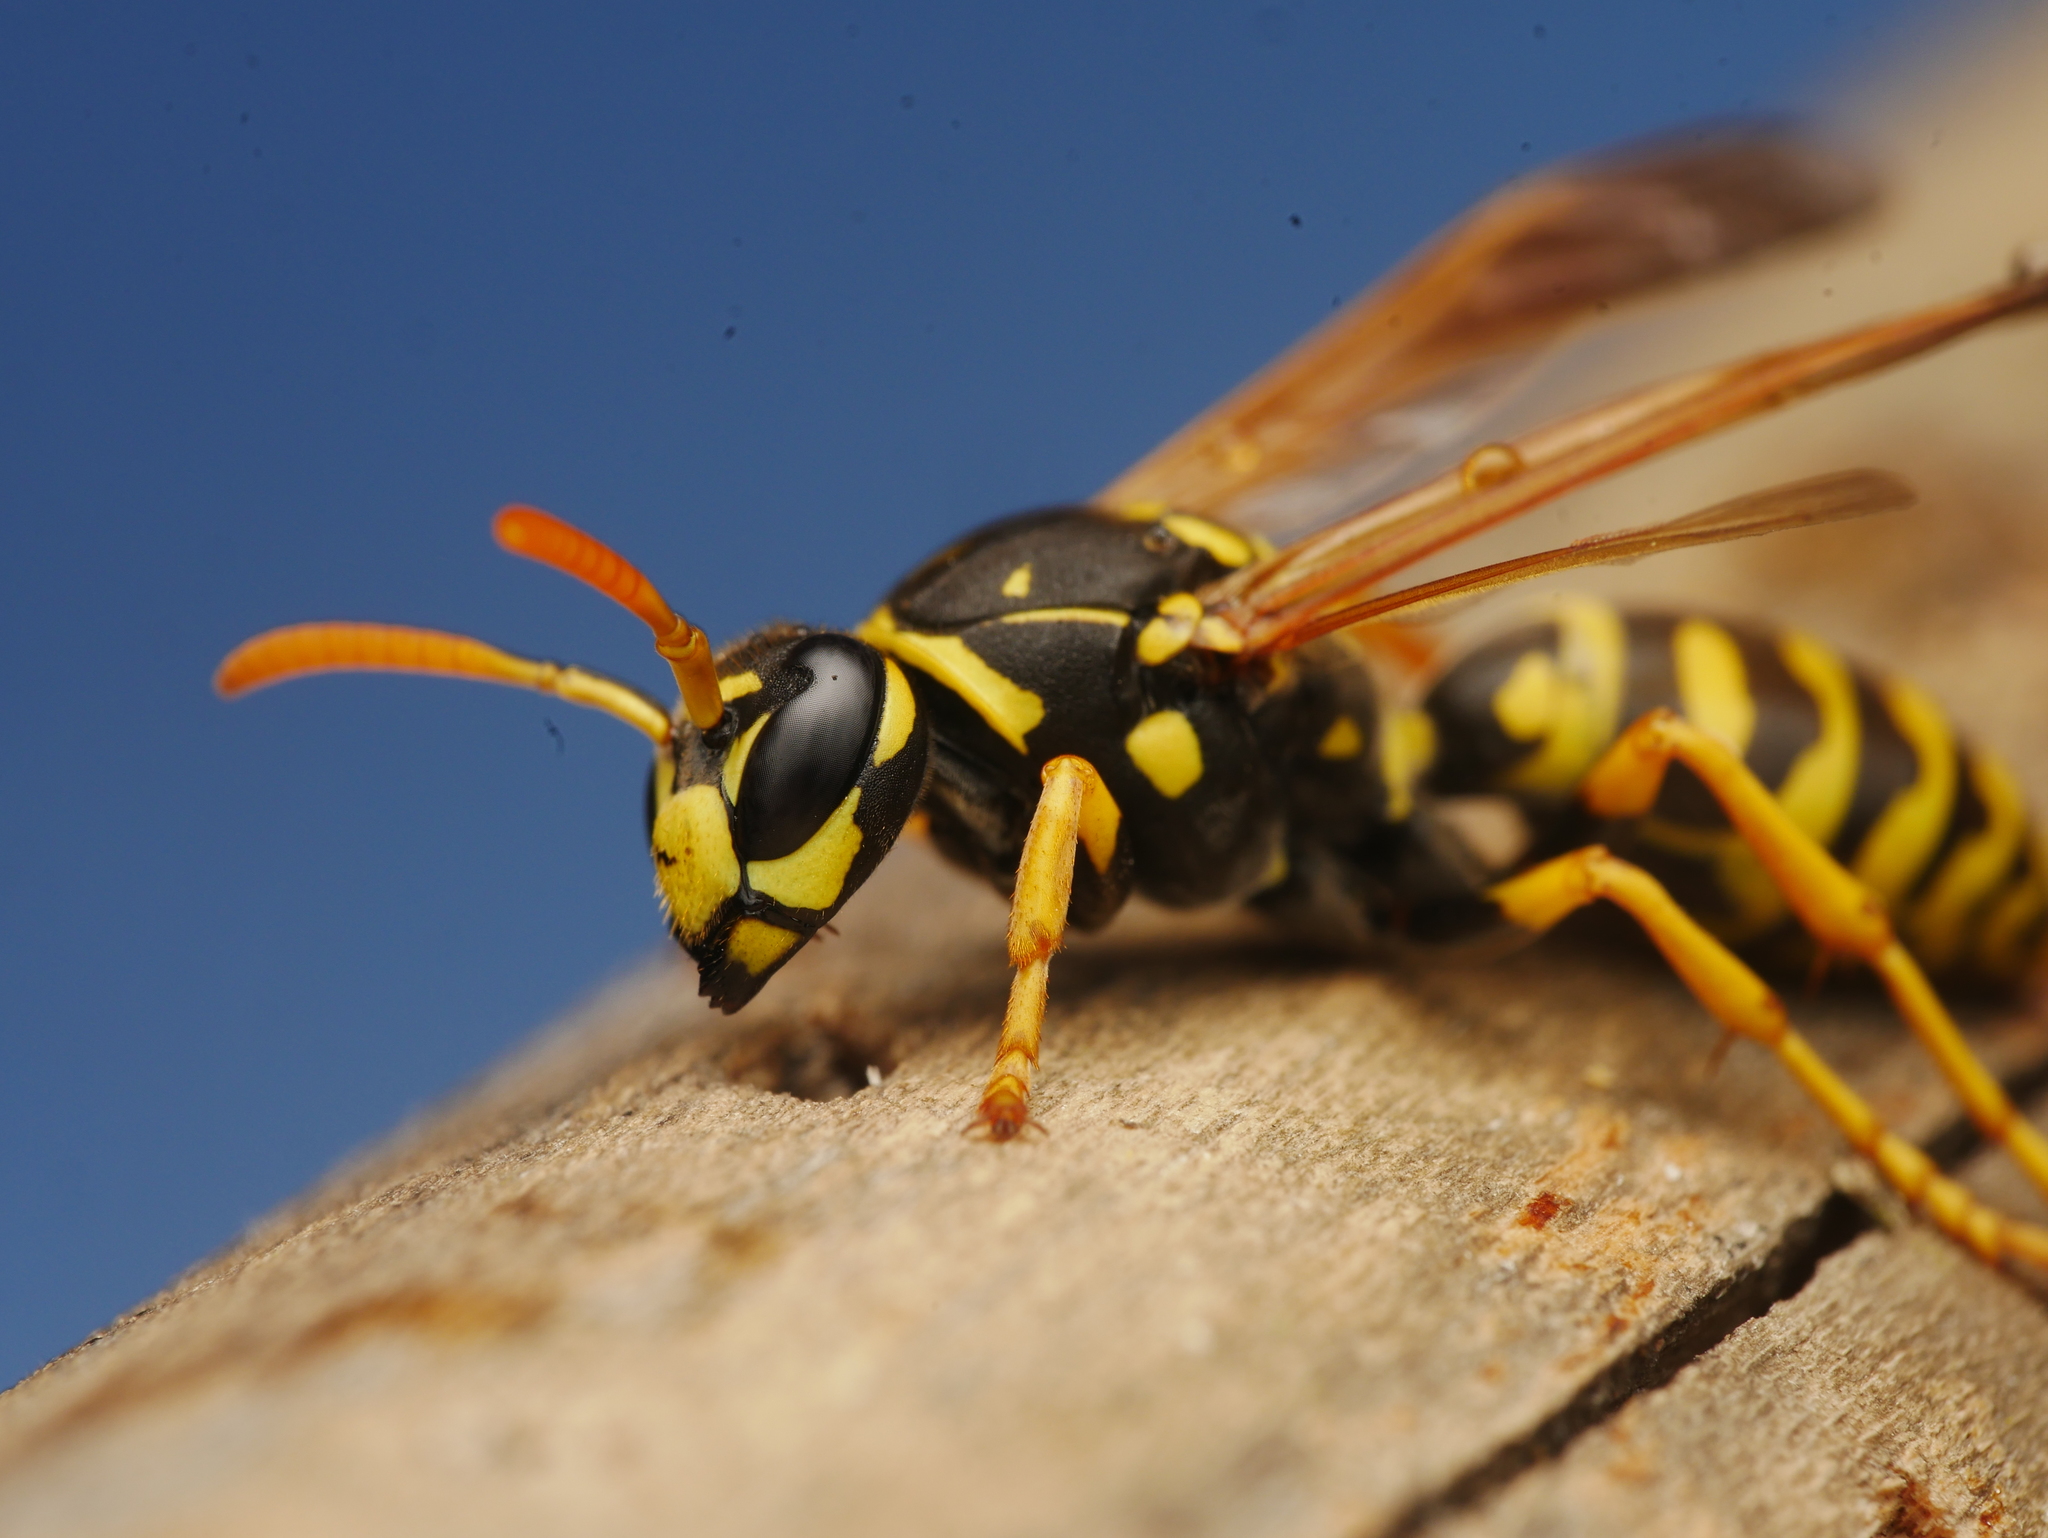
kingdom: Animalia
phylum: Arthropoda
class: Insecta
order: Hymenoptera
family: Eumenidae
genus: Polistes
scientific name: Polistes dominula
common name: Paper wasp
